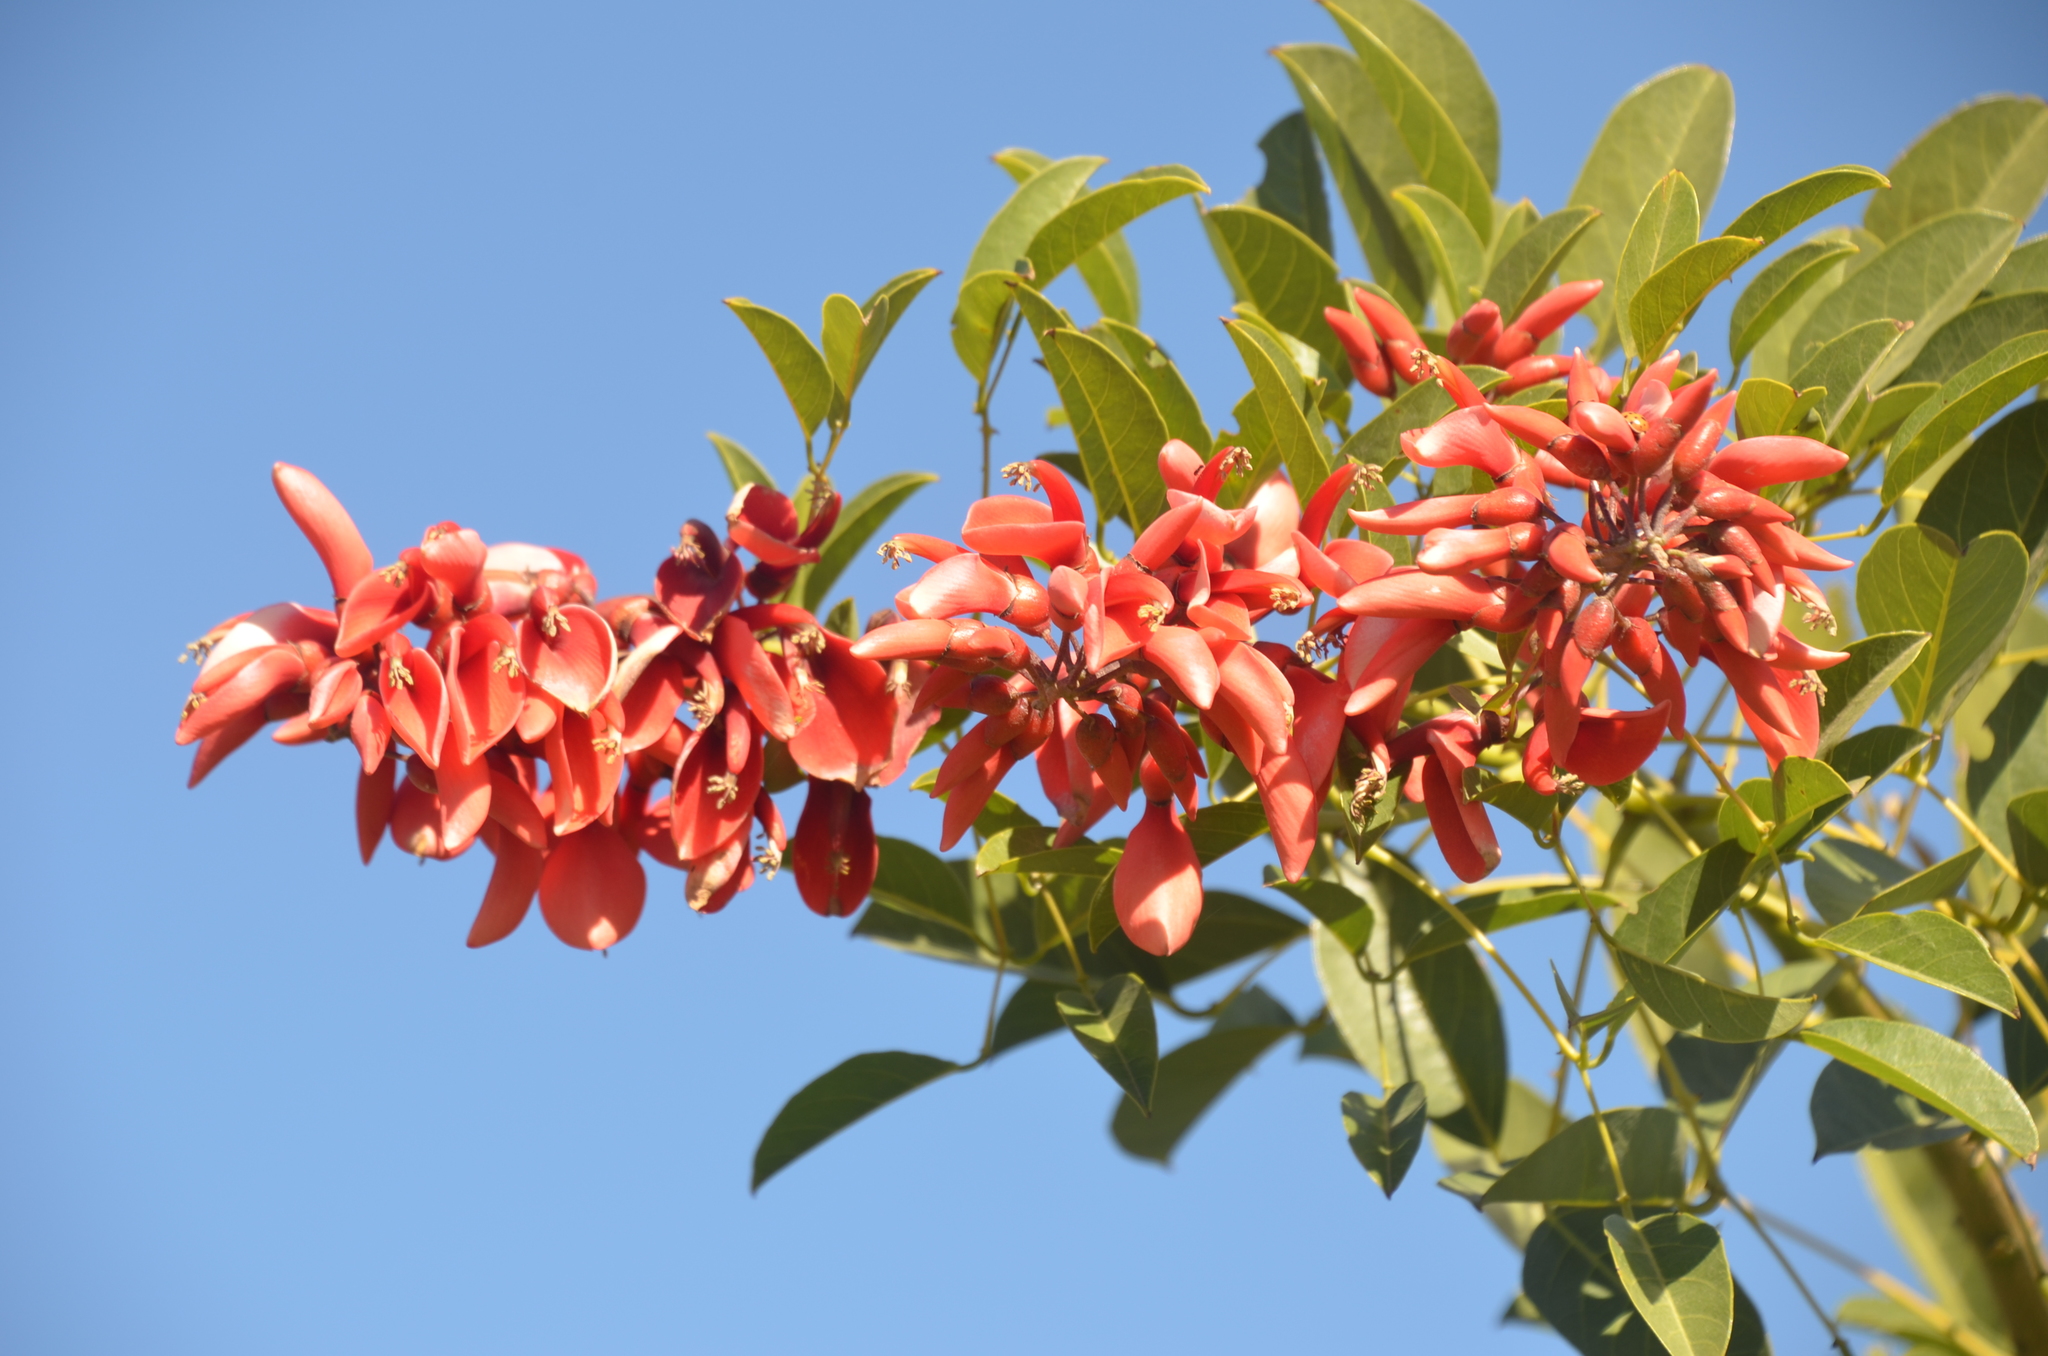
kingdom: Plantae
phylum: Tracheophyta
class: Magnoliopsida
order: Fabales
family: Fabaceae
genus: Erythrina
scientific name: Erythrina crista-galli
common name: Cockspur coral tree
